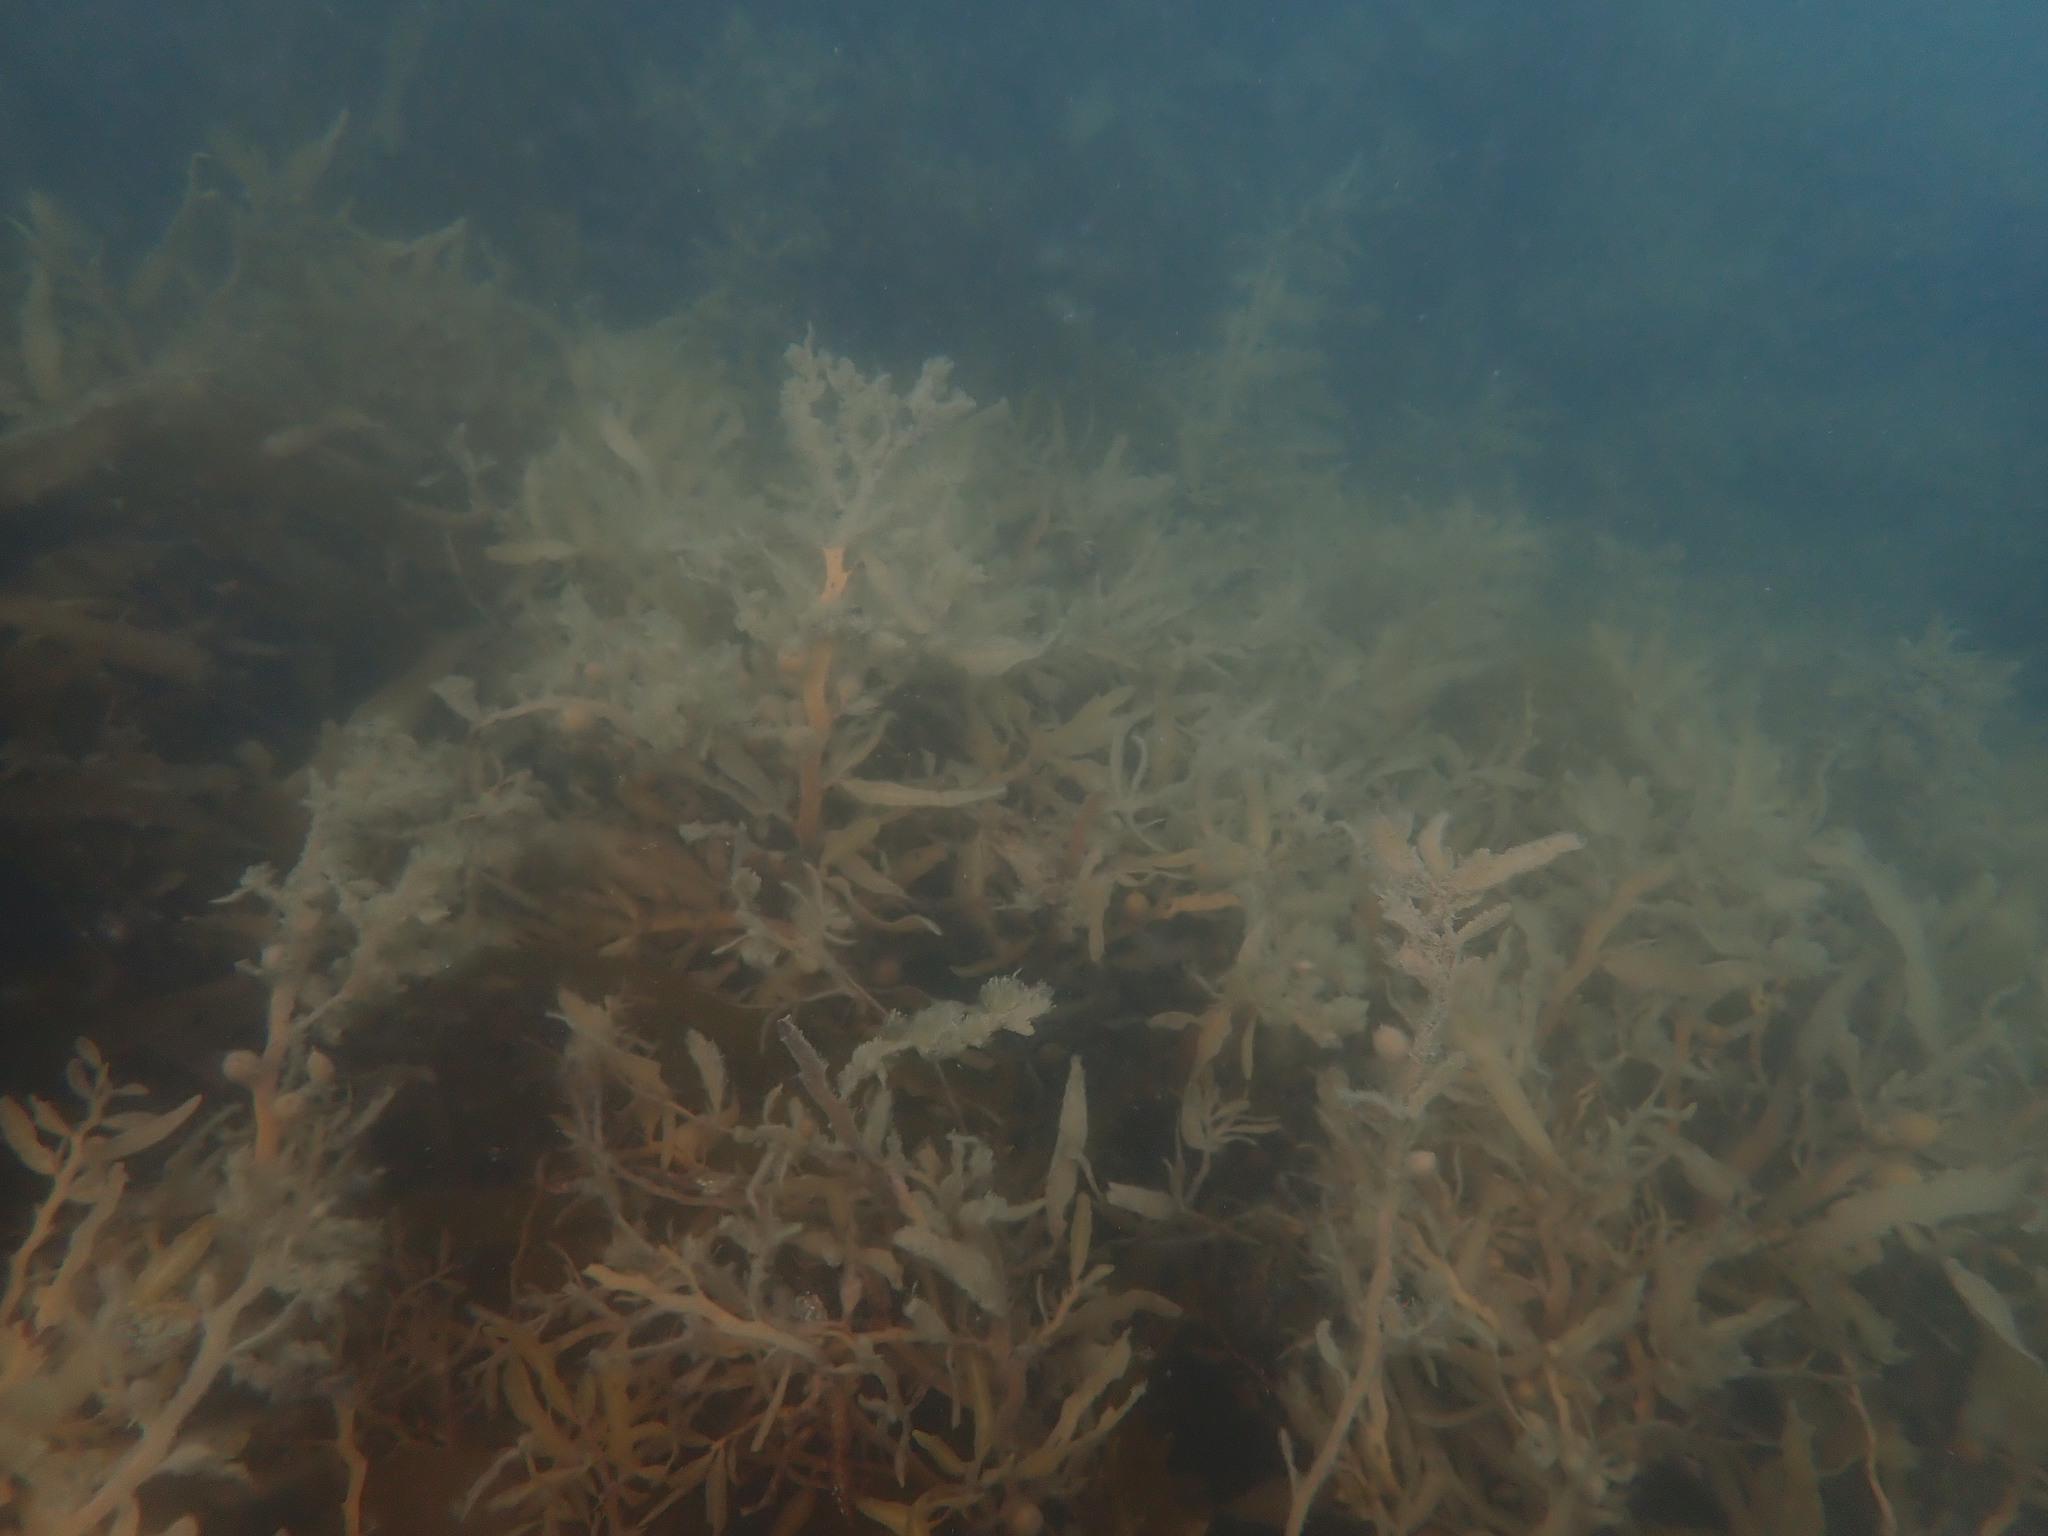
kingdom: Chromista
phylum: Ochrophyta
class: Phaeophyceae
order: Fucales
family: Sargassaceae
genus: Carpophyllum
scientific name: Carpophyllum flexuosum
